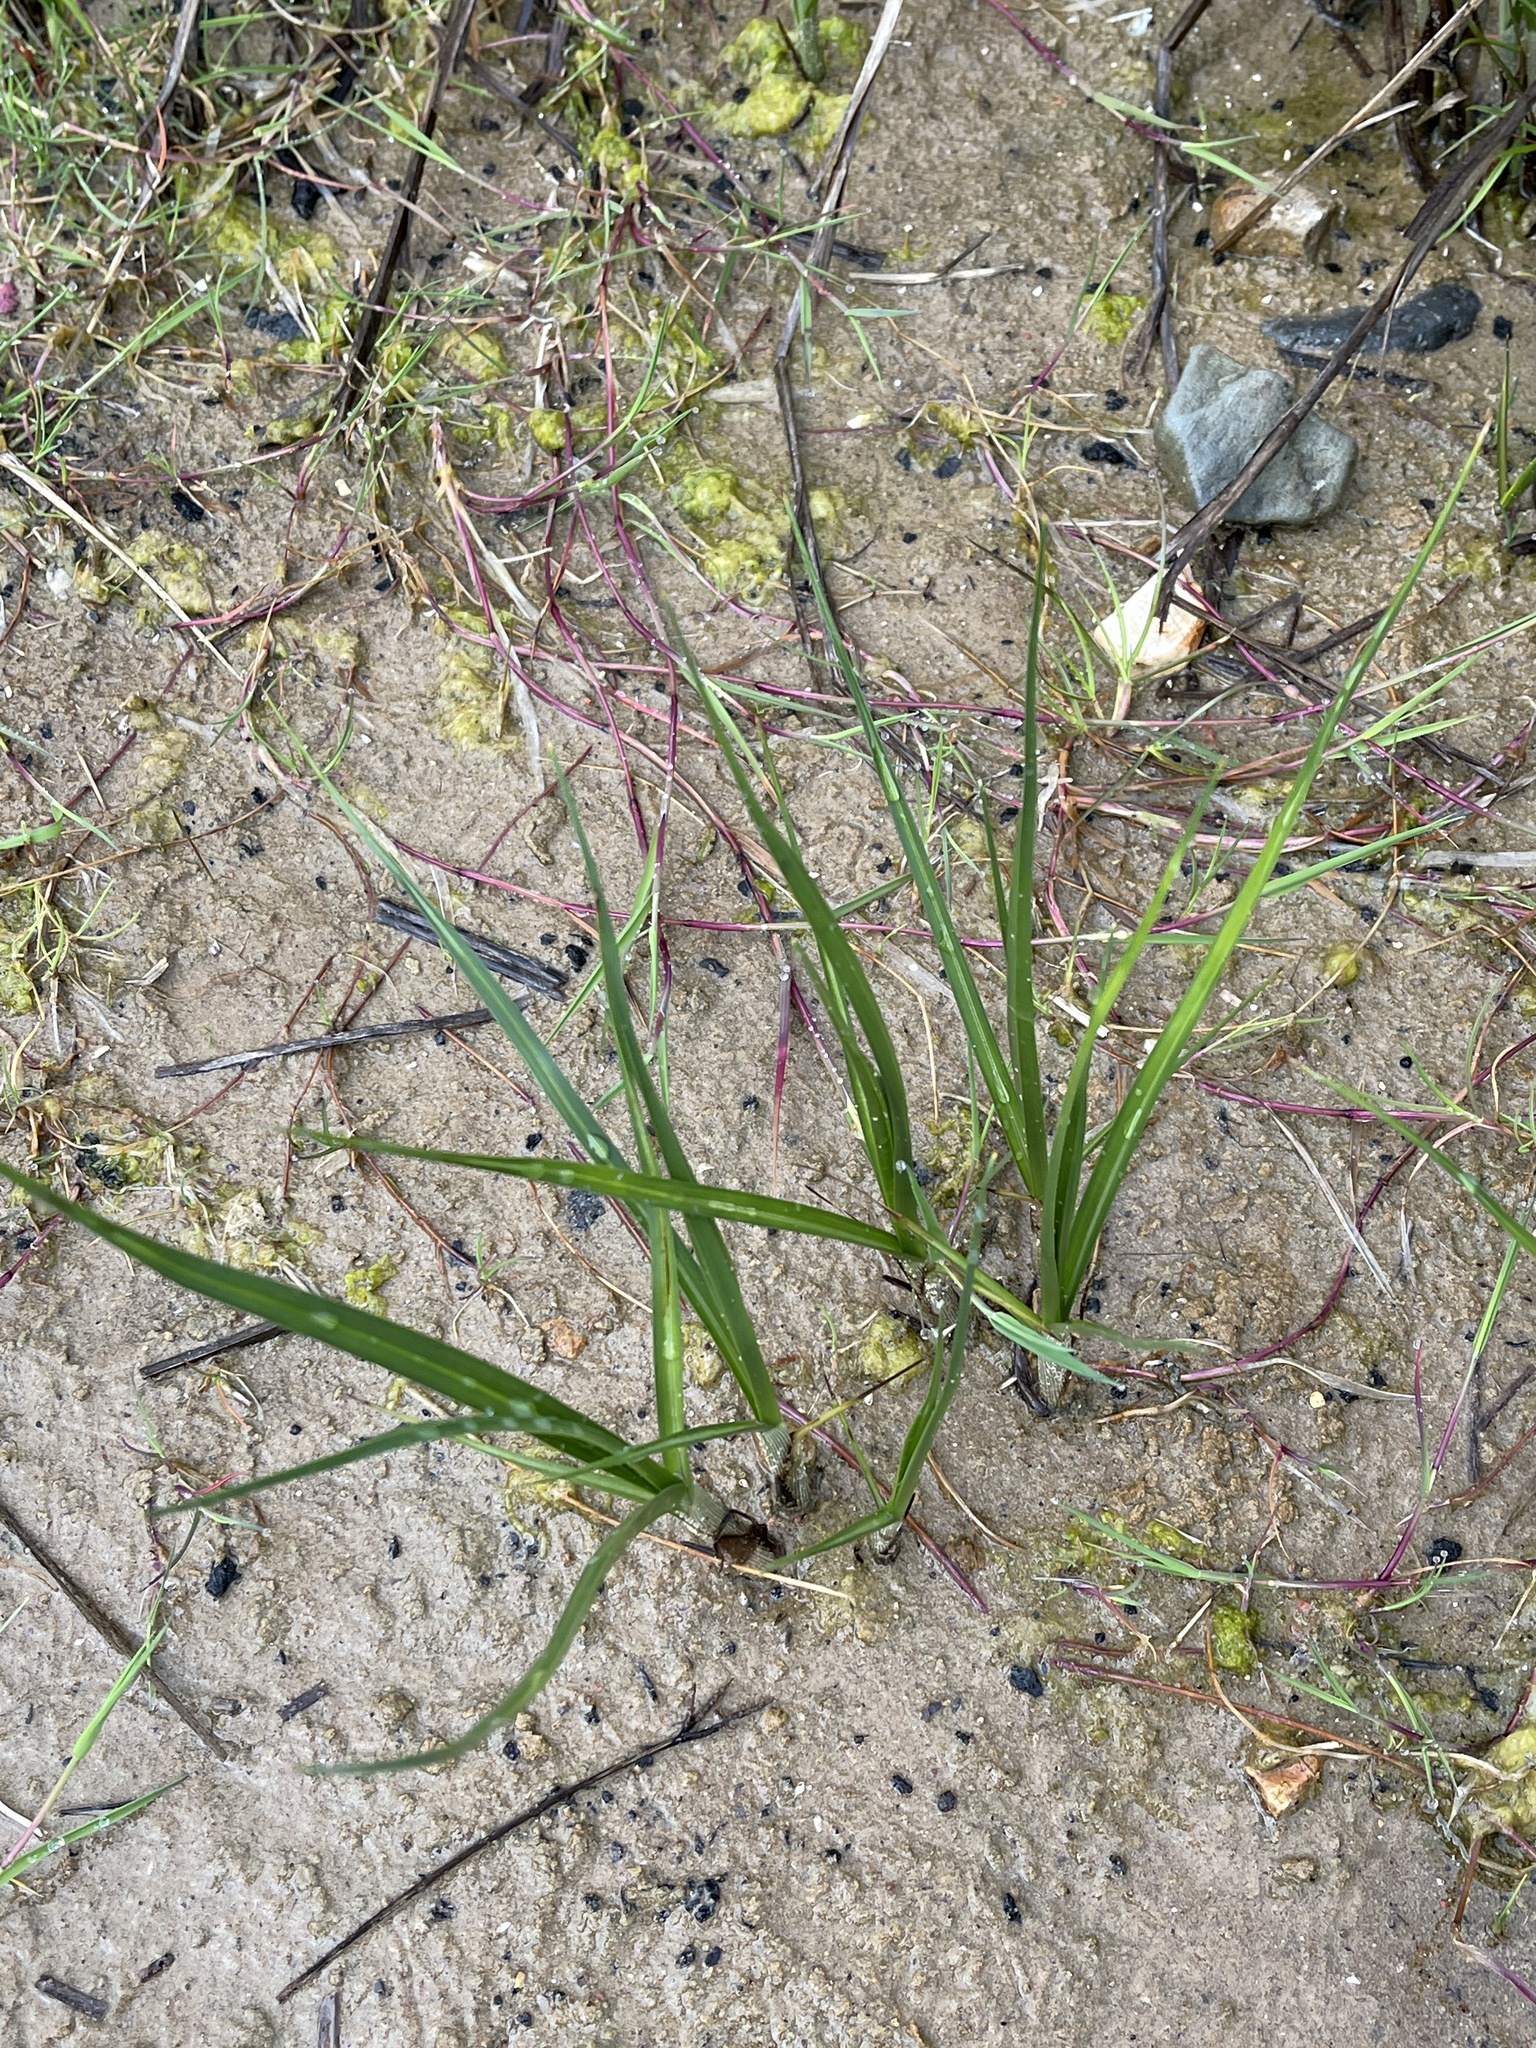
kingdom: Plantae
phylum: Tracheophyta
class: Liliopsida
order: Poales
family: Cyperaceae
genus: Bolboschoenus
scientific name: Bolboschoenus maritimus
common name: Sea club-rush
